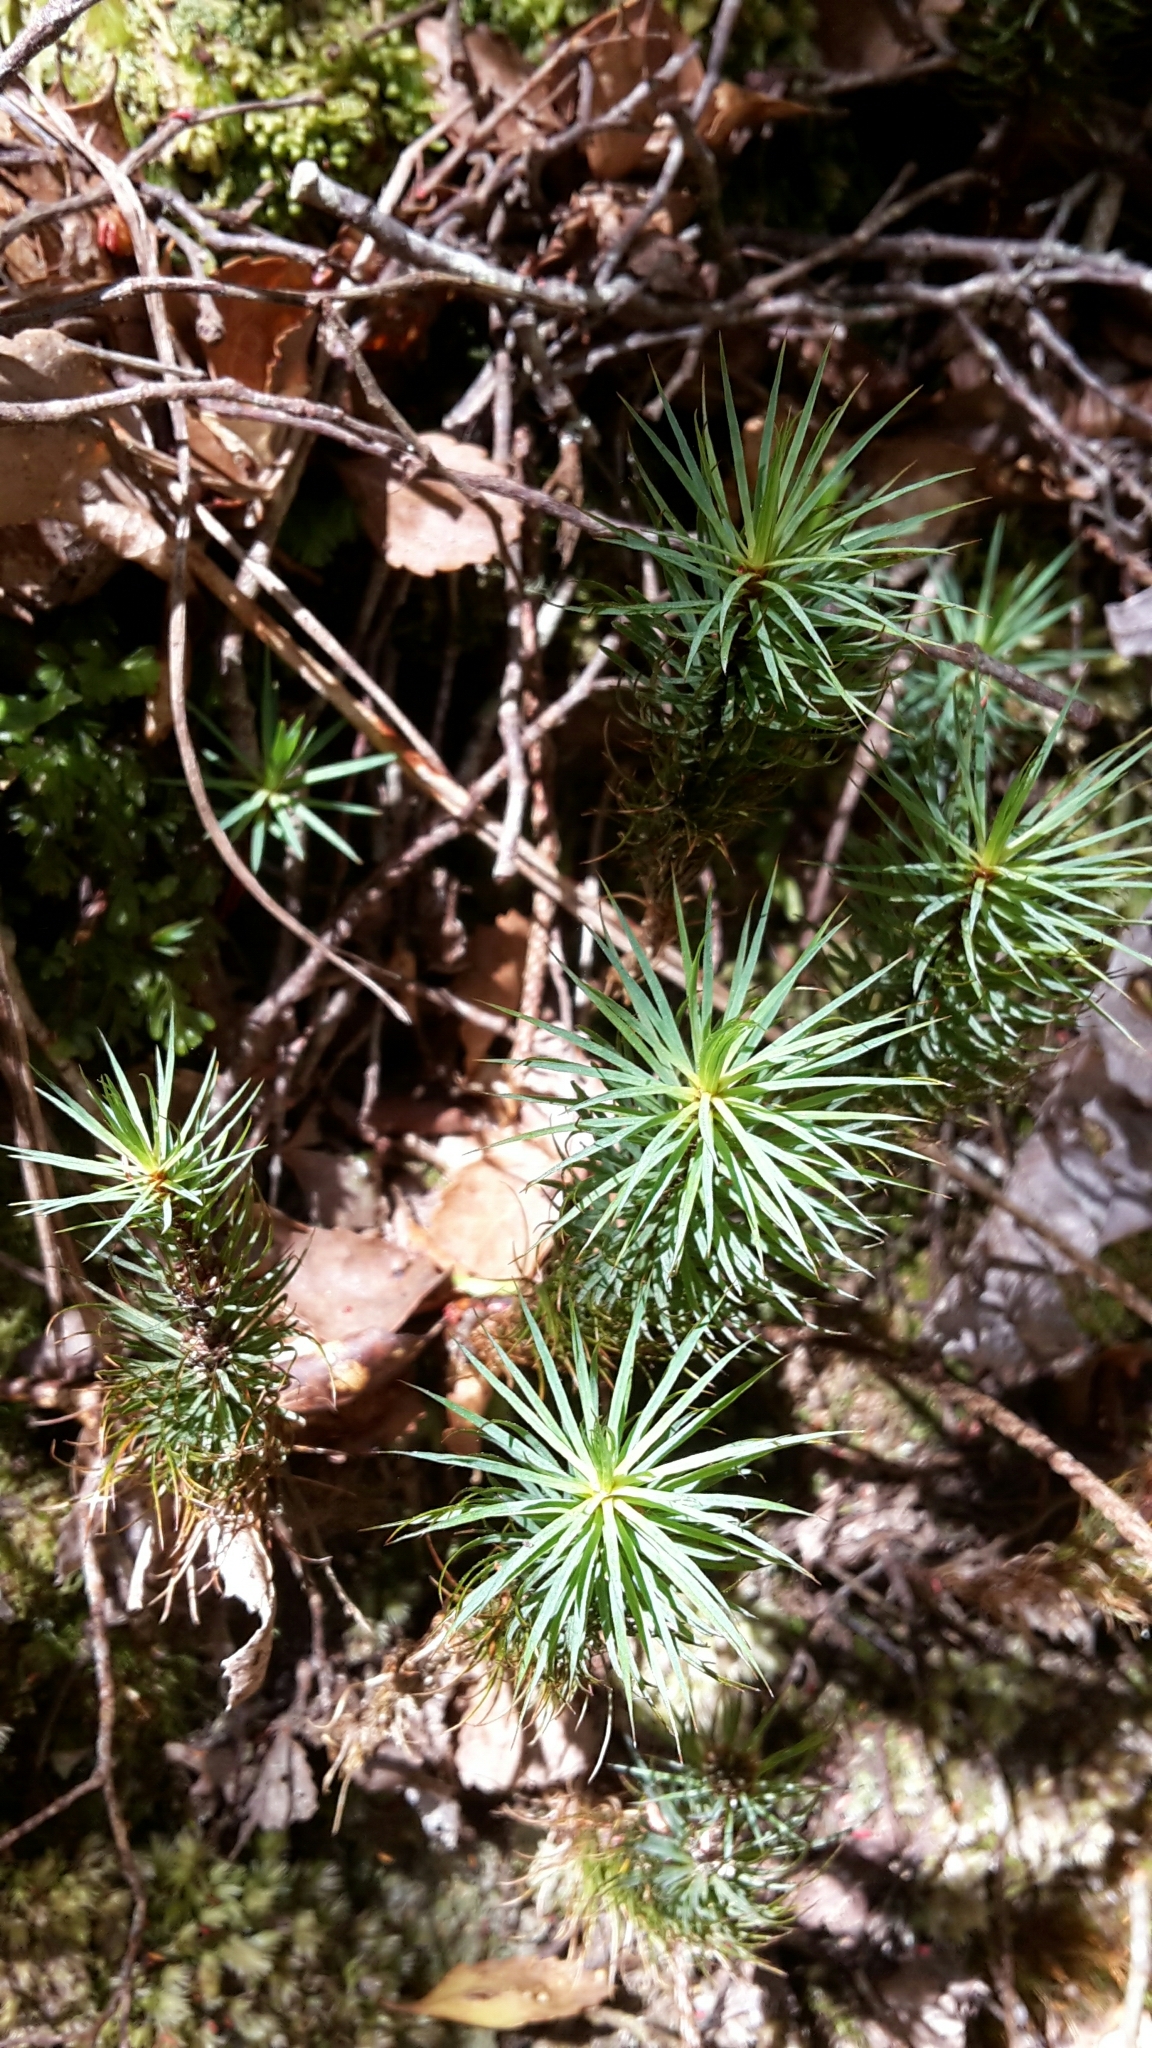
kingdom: Plantae
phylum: Bryophyta
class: Polytrichopsida
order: Polytrichales
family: Polytrichaceae
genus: Dawsonia
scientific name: Dawsonia superba
